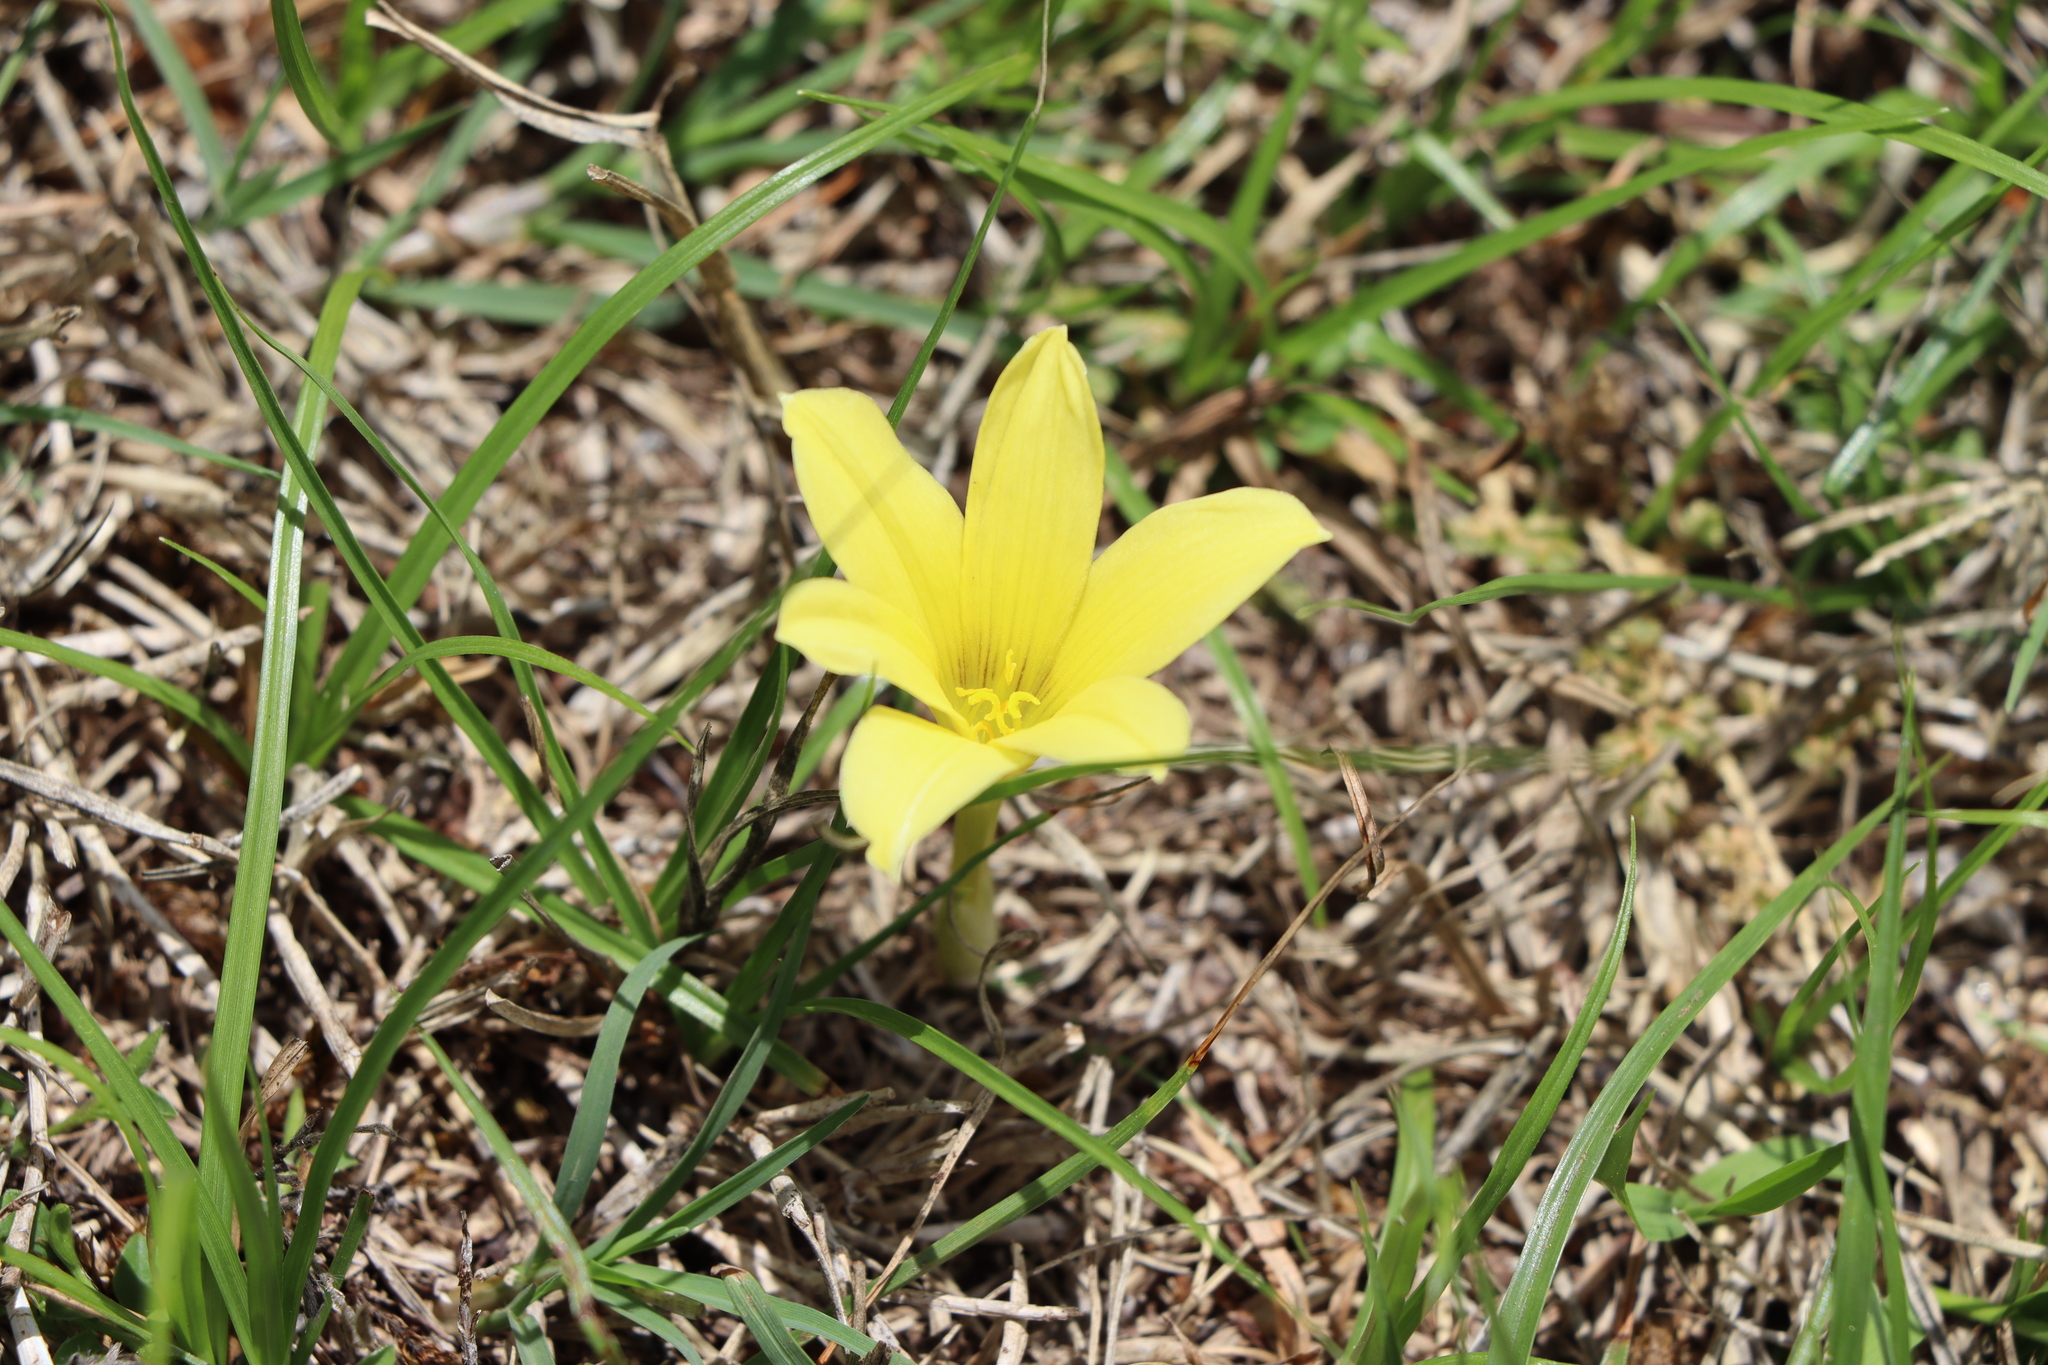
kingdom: Plantae
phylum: Tracheophyta
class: Liliopsida
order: Asparagales
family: Amaryllidaceae
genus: Zephyranthes
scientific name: Zephyranthes americana
